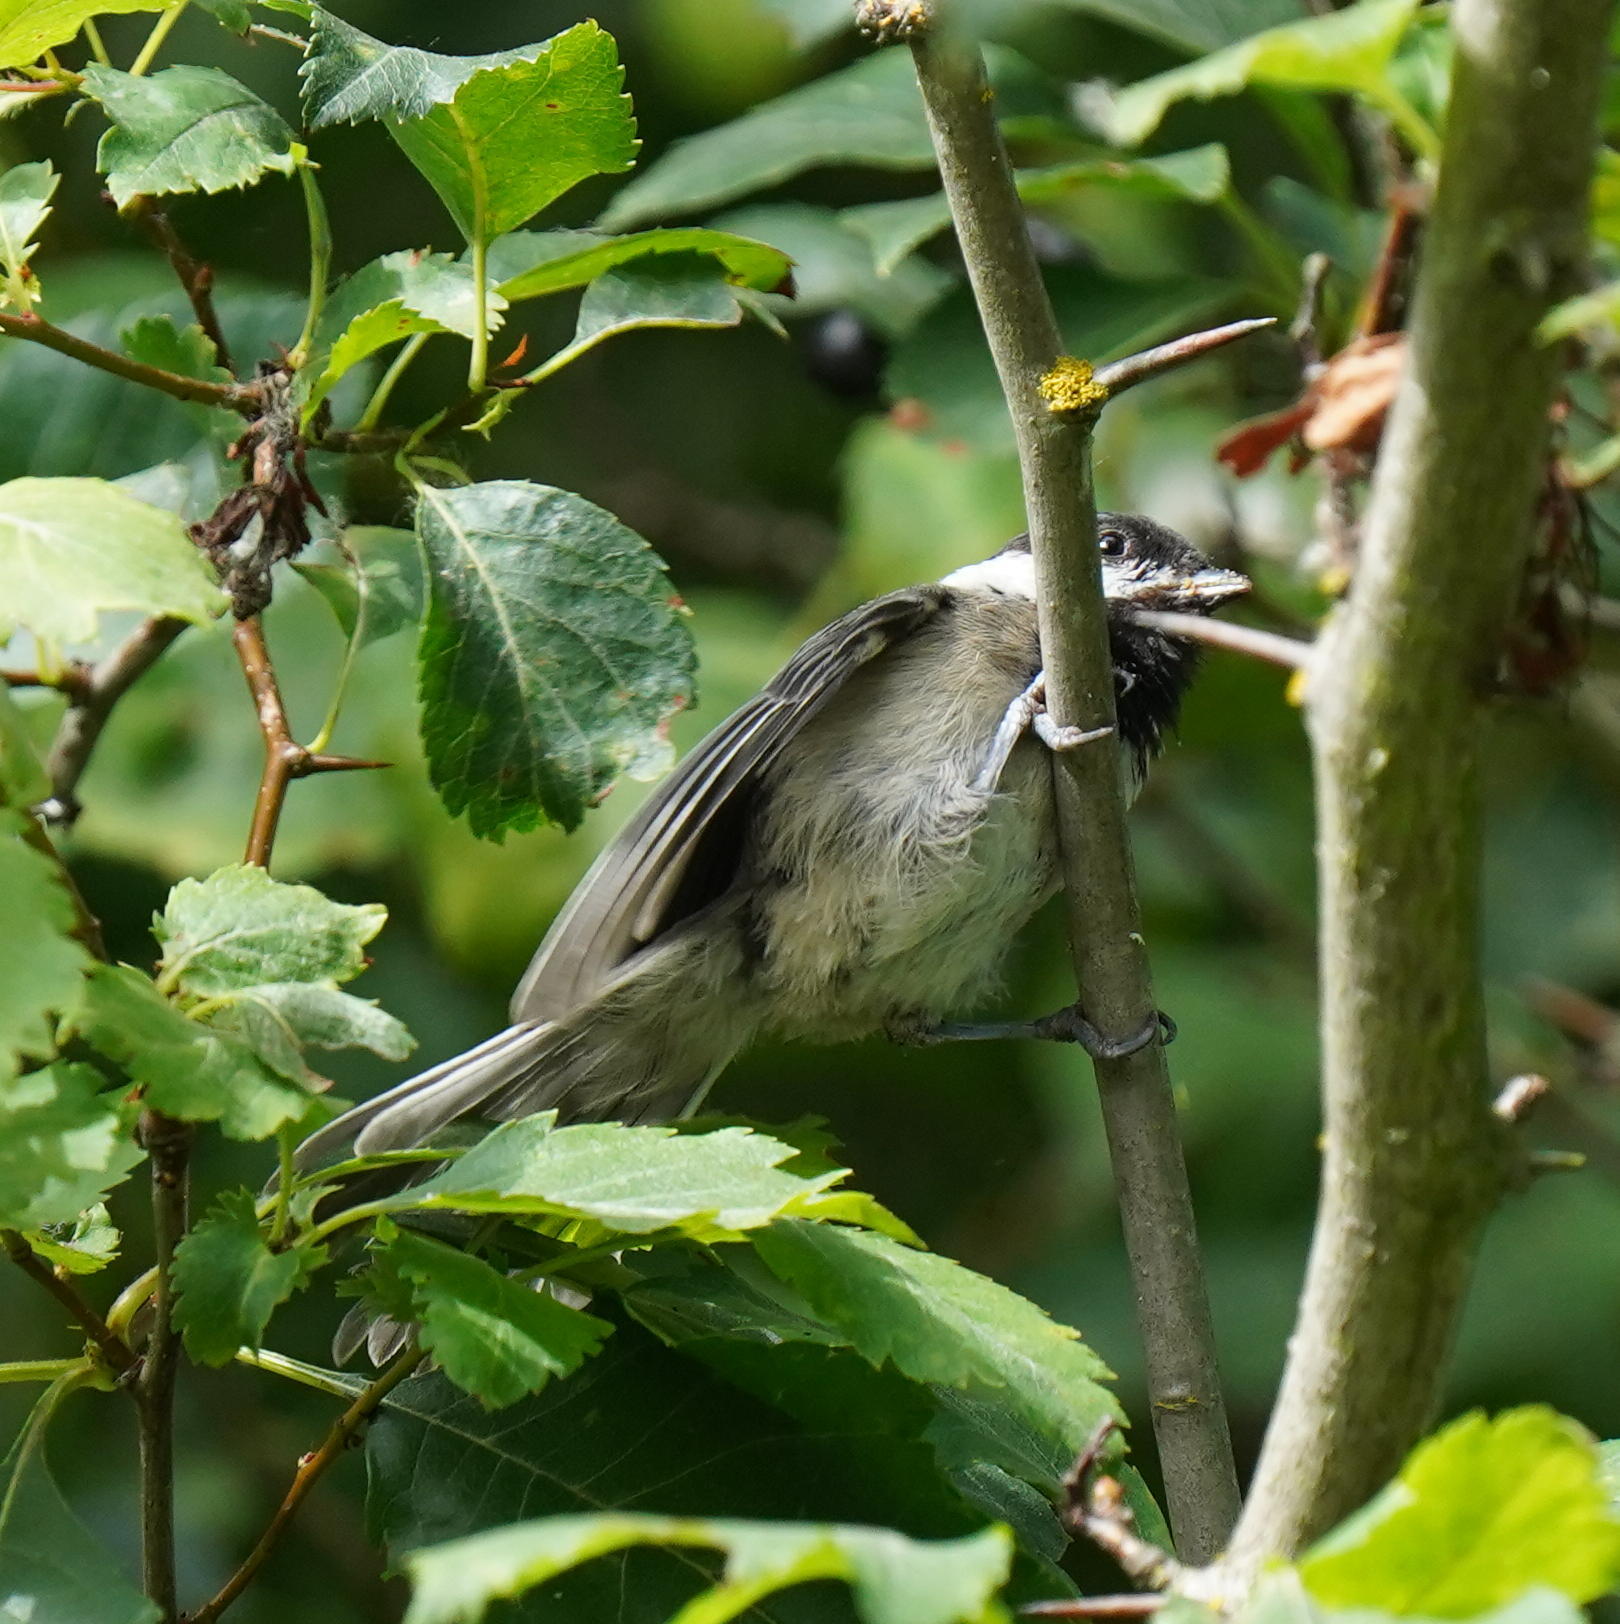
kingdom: Animalia
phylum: Chordata
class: Aves
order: Passeriformes
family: Paridae
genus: Poecile
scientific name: Poecile atricapillus
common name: Black-capped chickadee
